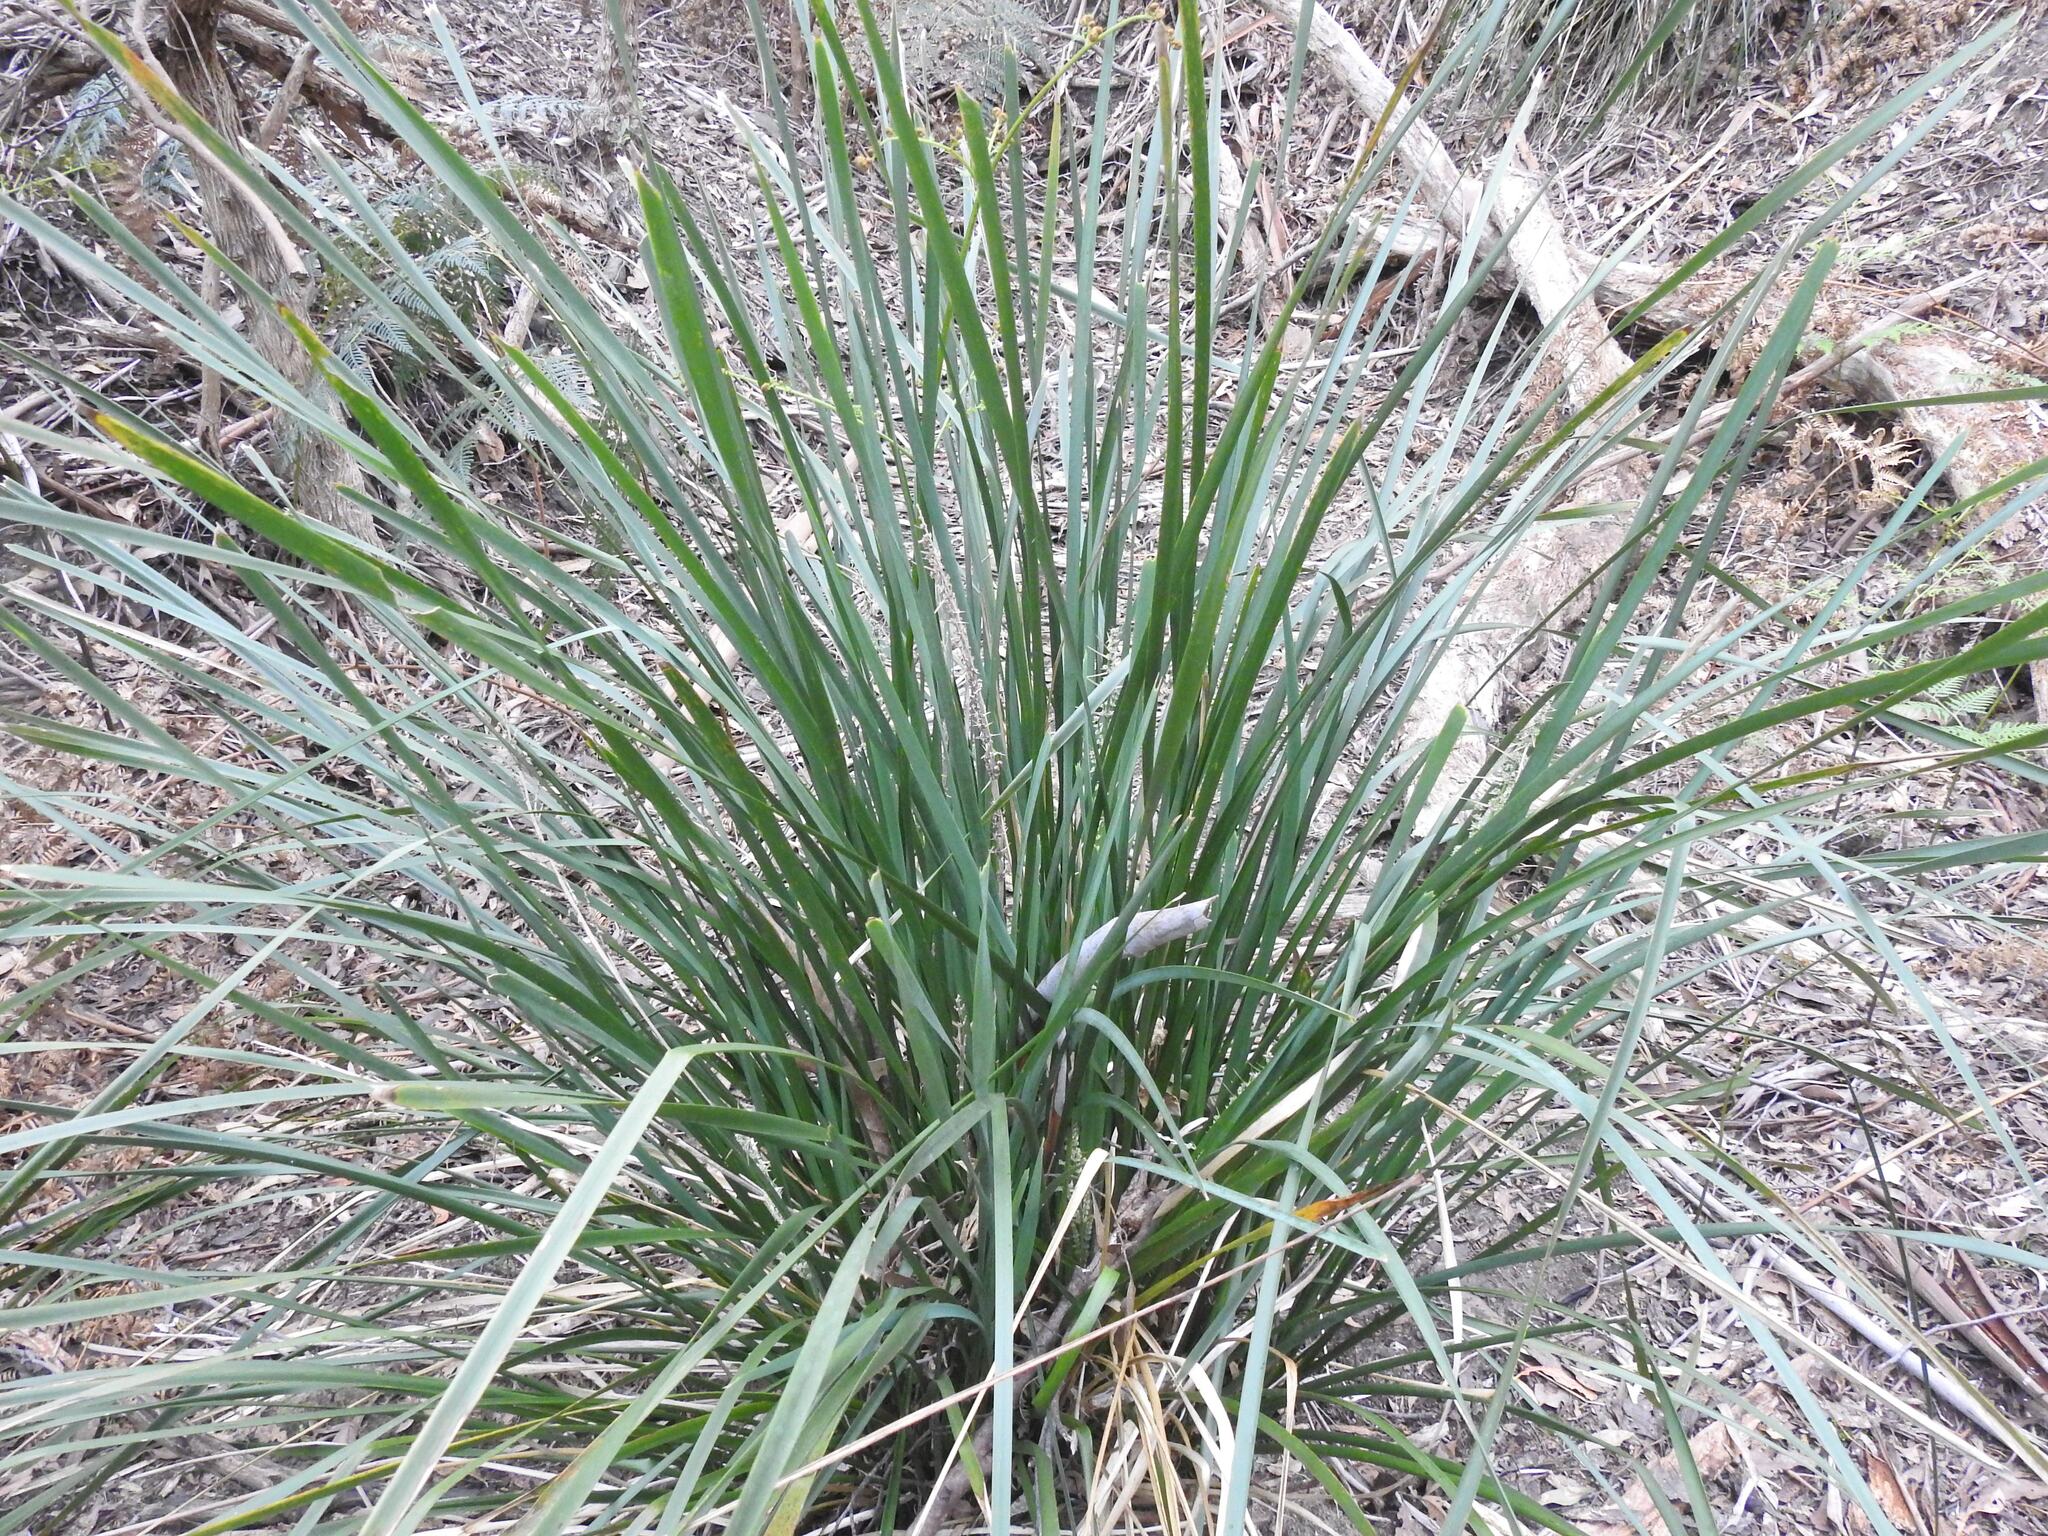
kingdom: Plantae
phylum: Tracheophyta
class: Liliopsida
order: Asparagales
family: Asparagaceae
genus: Lomandra
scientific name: Lomandra longifolia
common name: Longleaf mat-rush
